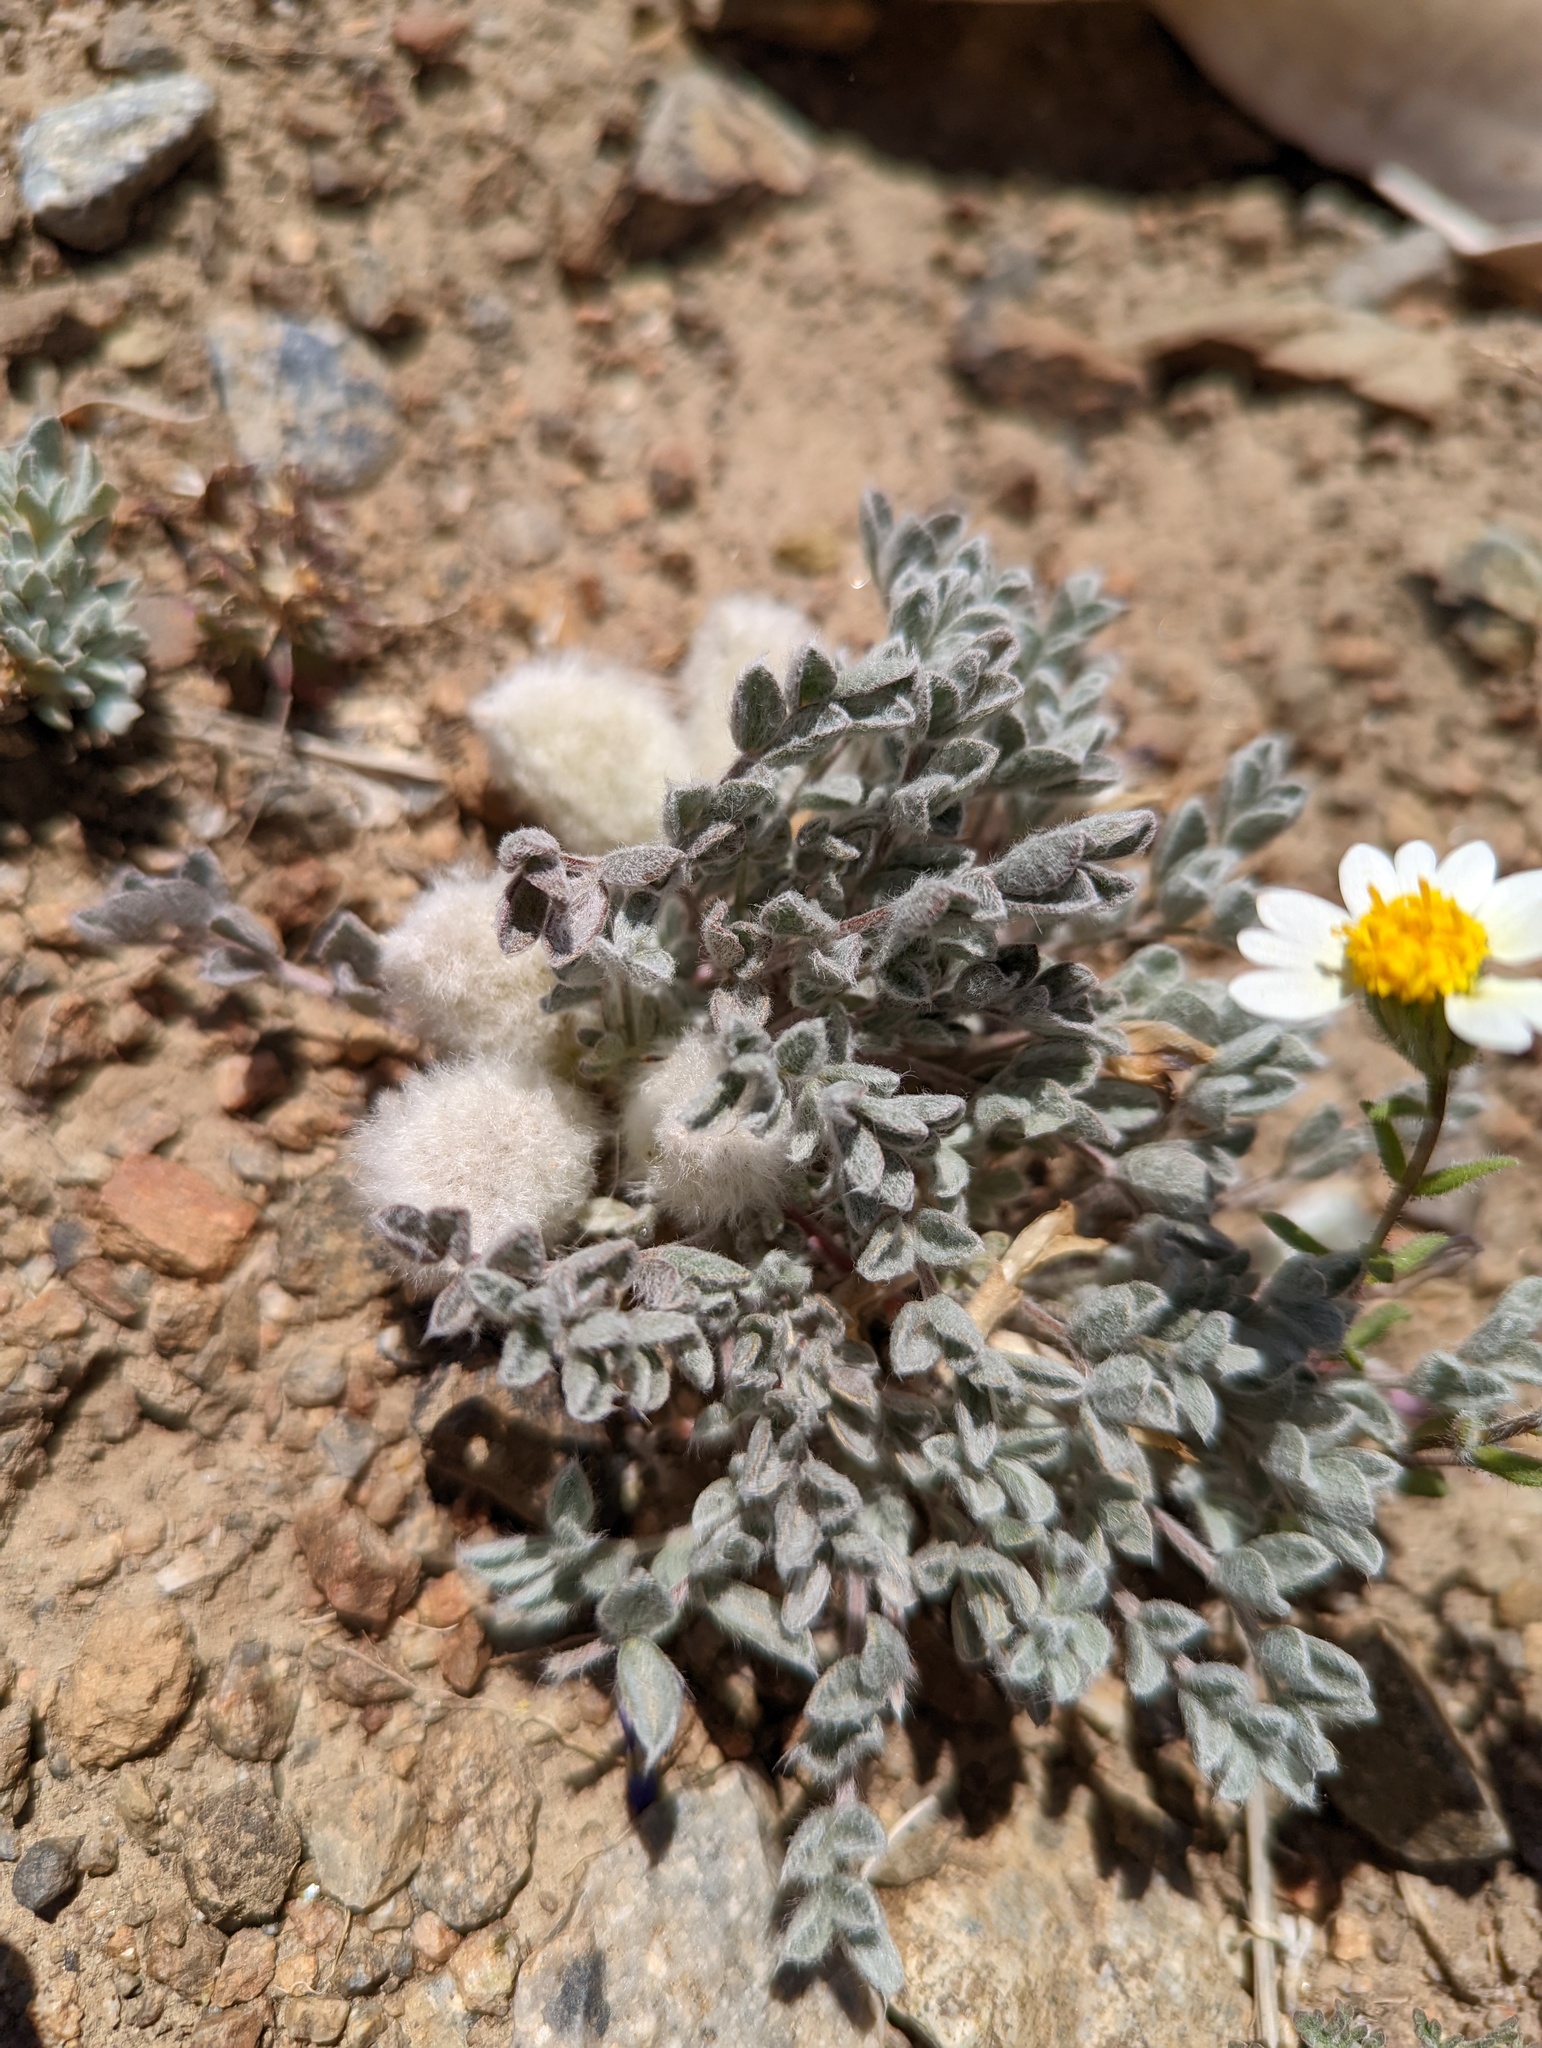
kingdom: Plantae
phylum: Tracheophyta
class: Magnoliopsida
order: Fabales
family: Fabaceae
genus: Astragalus
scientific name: Astragalus purshii
